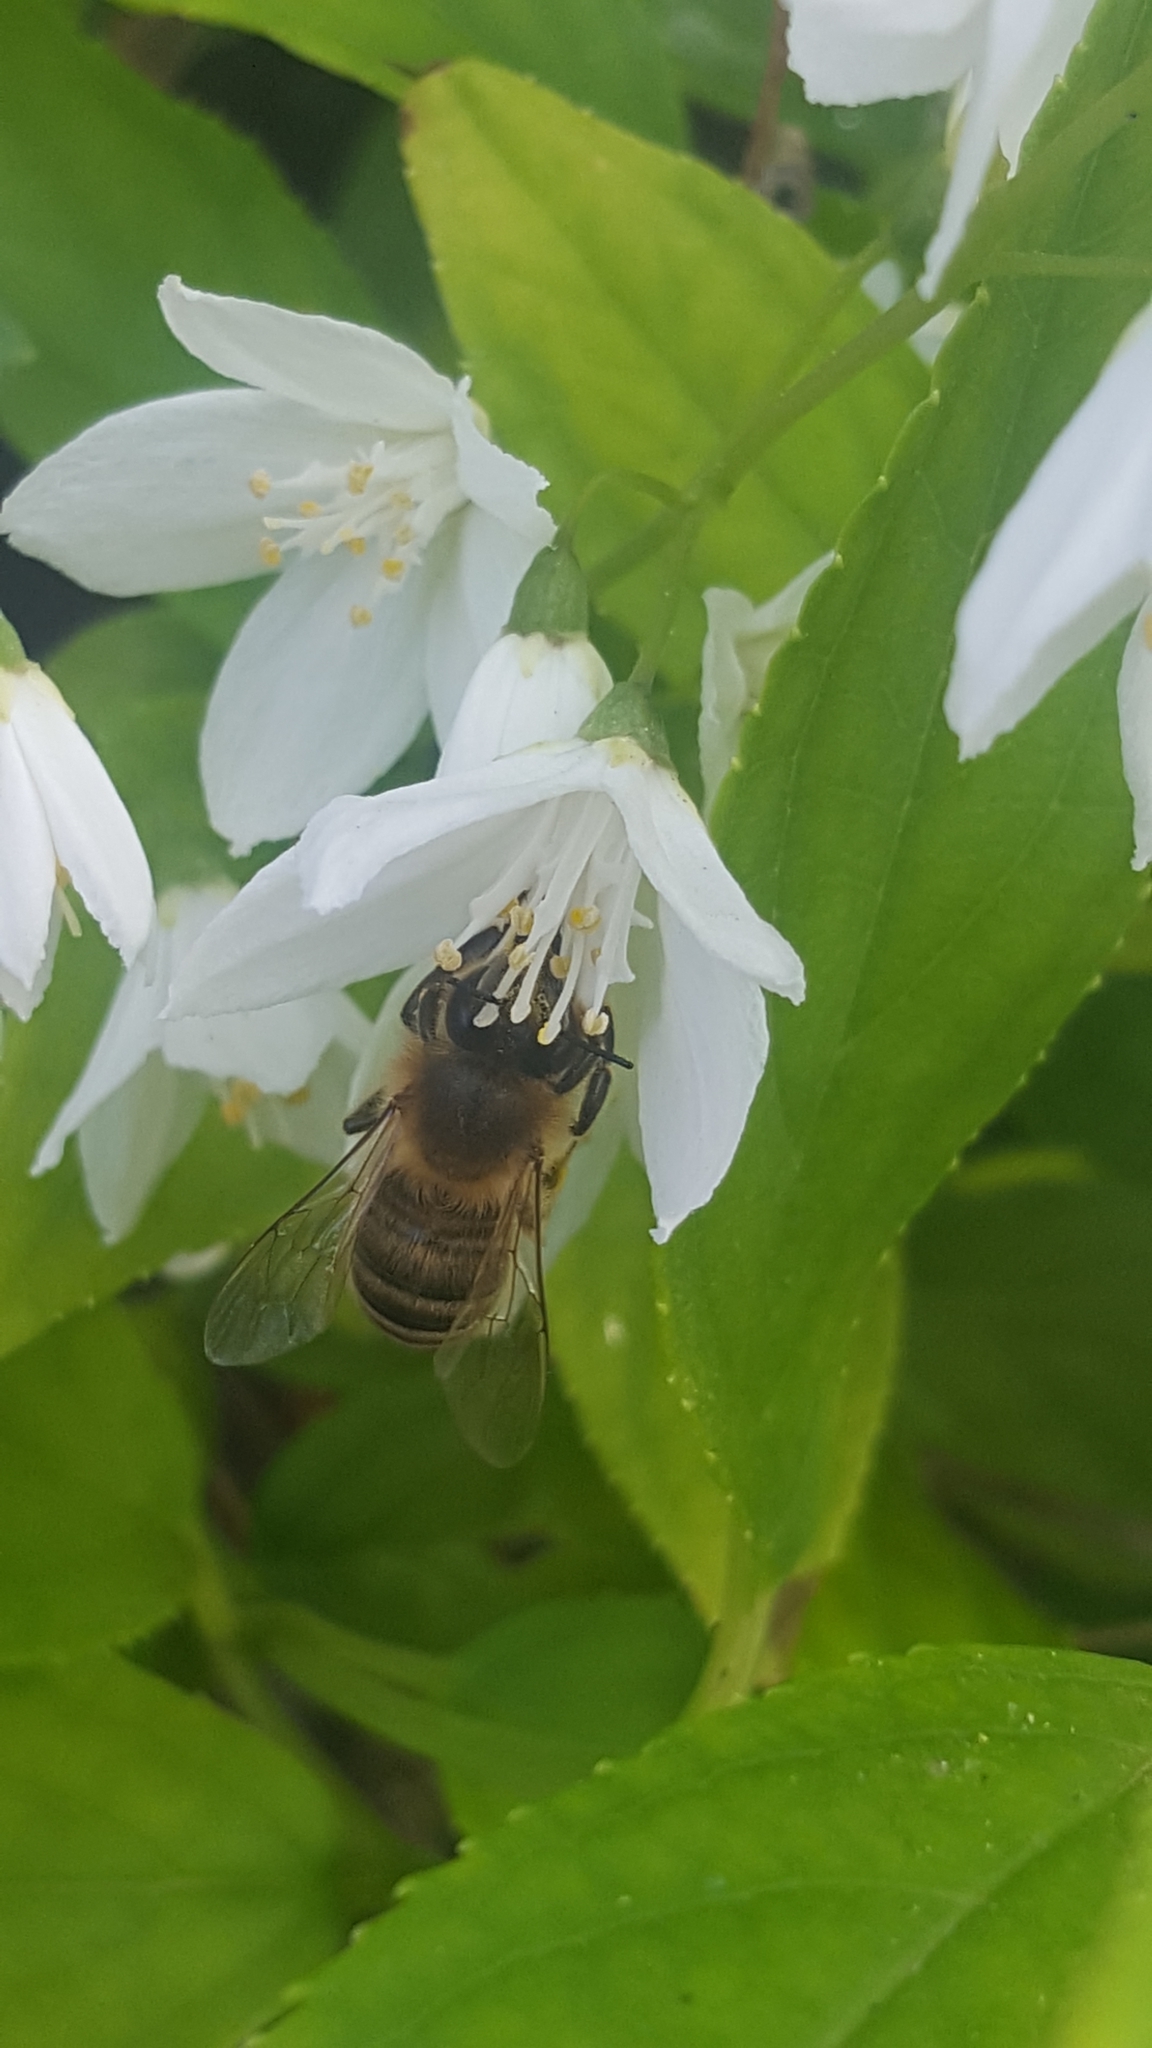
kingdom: Animalia
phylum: Arthropoda
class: Insecta
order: Hymenoptera
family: Apidae
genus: Apis
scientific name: Apis mellifera
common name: Honey bee
